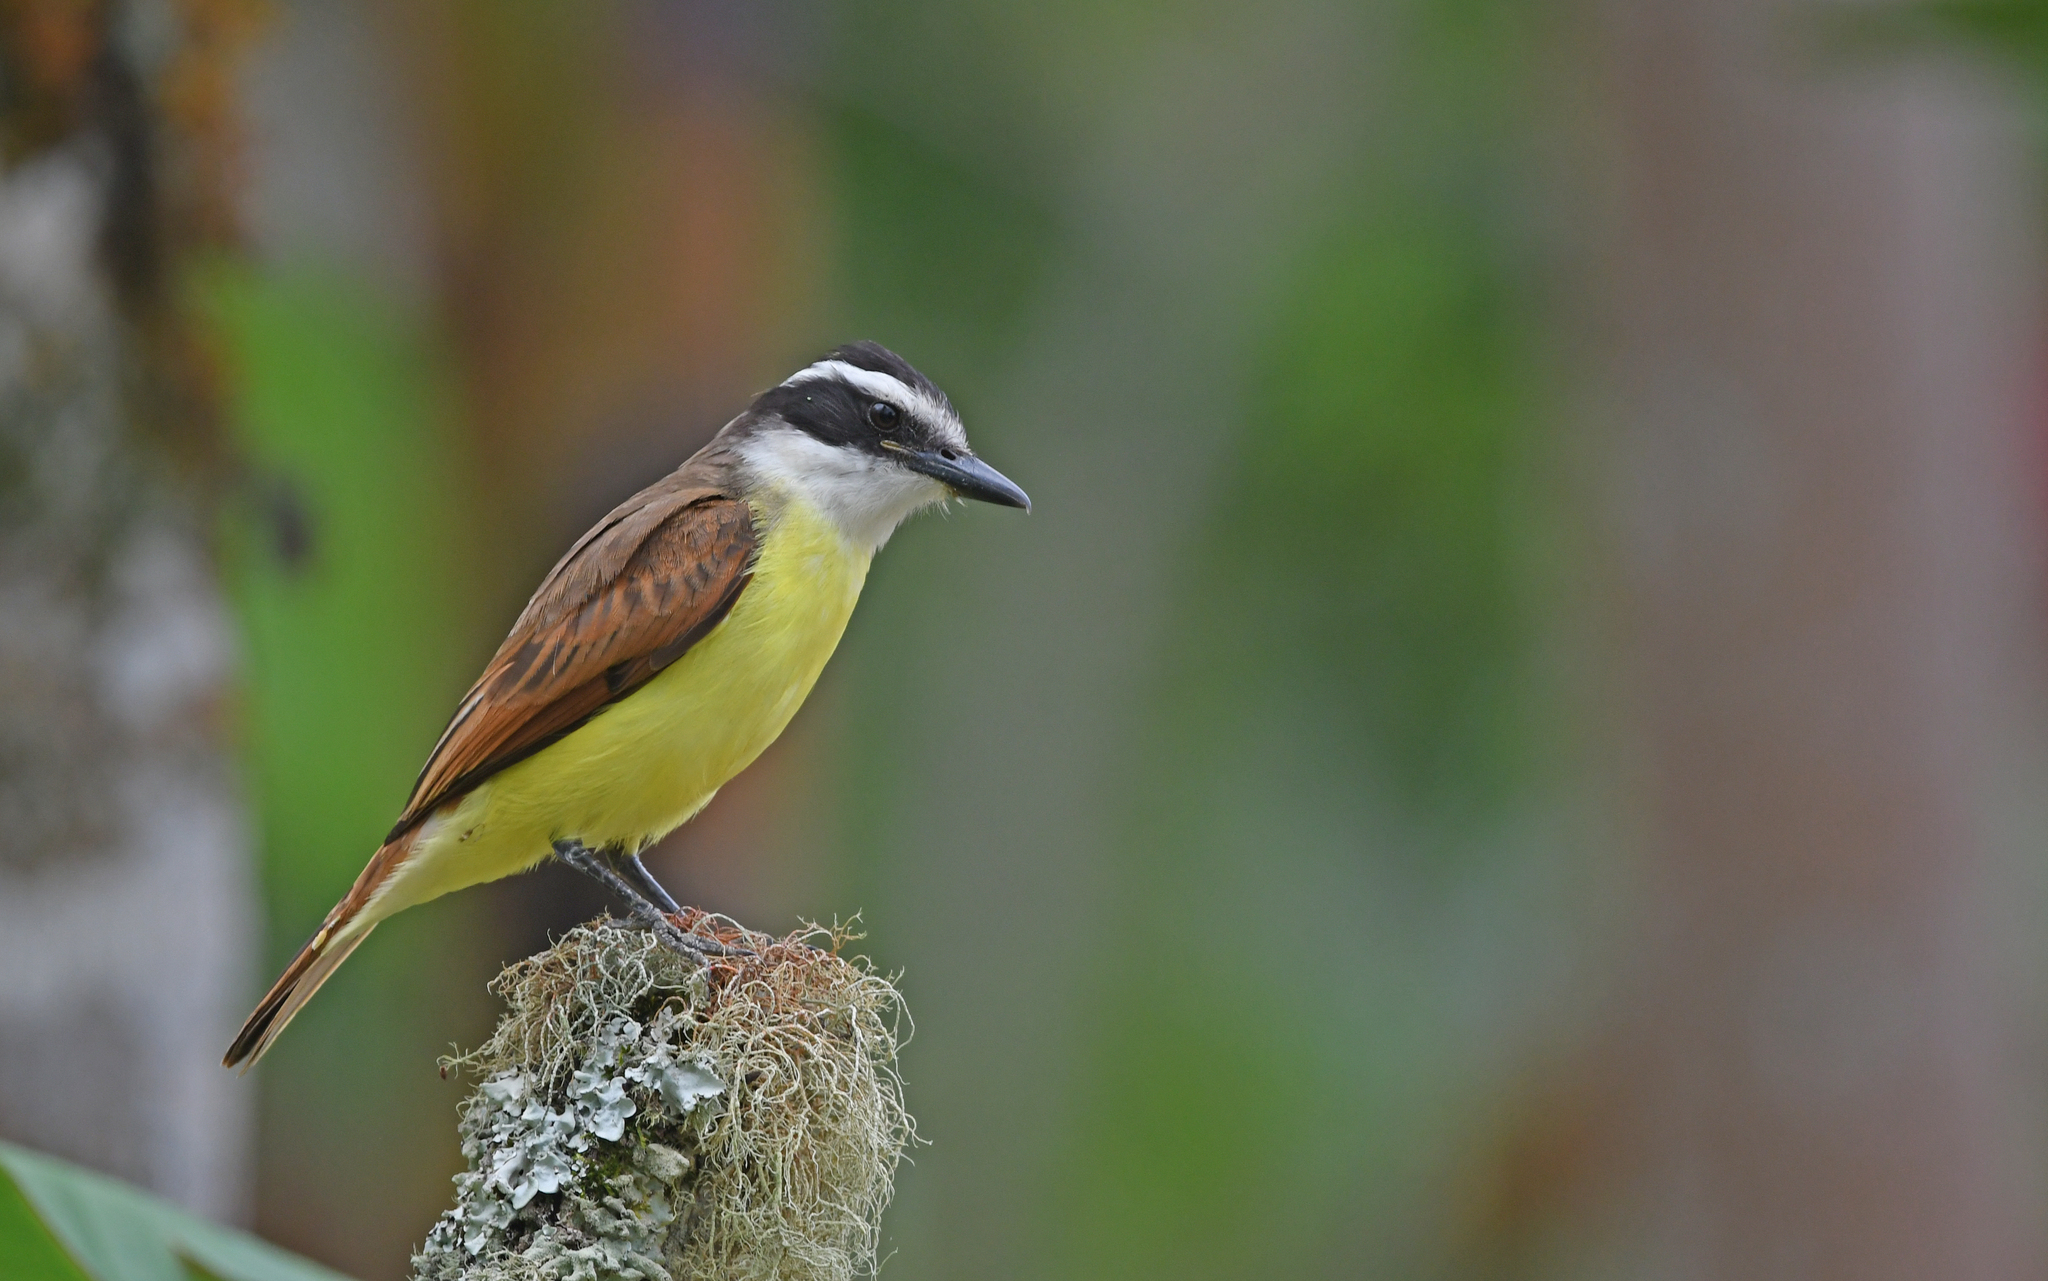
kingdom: Animalia
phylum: Chordata
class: Aves
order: Passeriformes
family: Tyrannidae
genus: Pitangus
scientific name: Pitangus sulphuratus
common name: Great kiskadee
